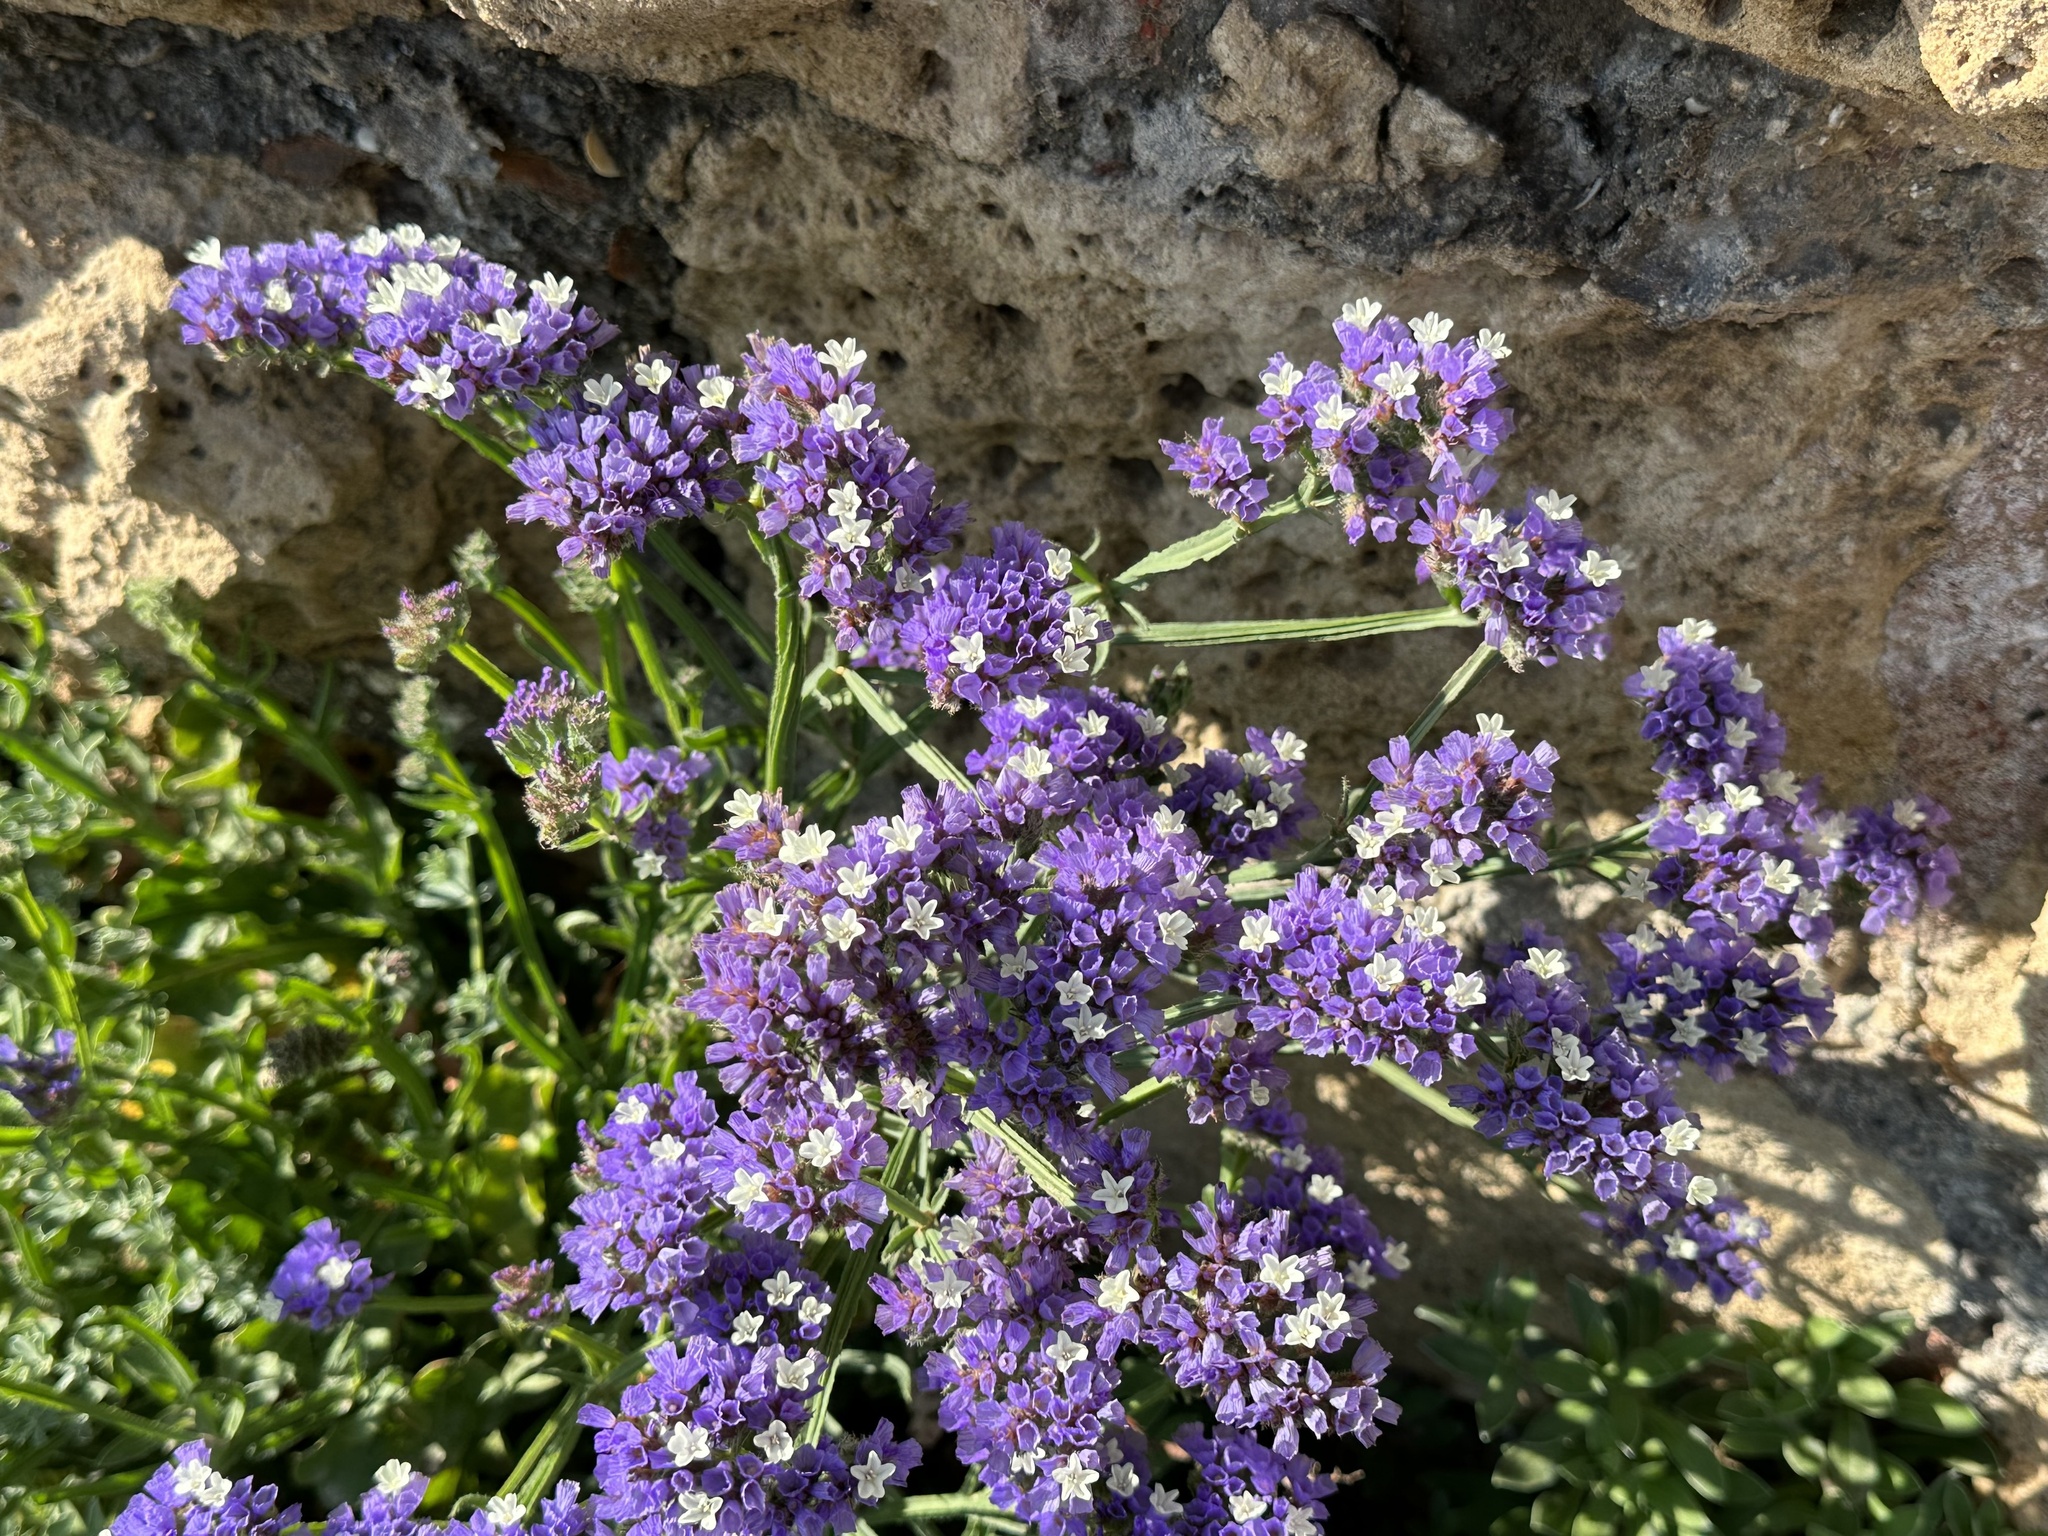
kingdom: Plantae
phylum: Tracheophyta
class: Magnoliopsida
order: Caryophyllales
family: Plumbaginaceae
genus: Limonium
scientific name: Limonium sinuatum
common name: Statice
